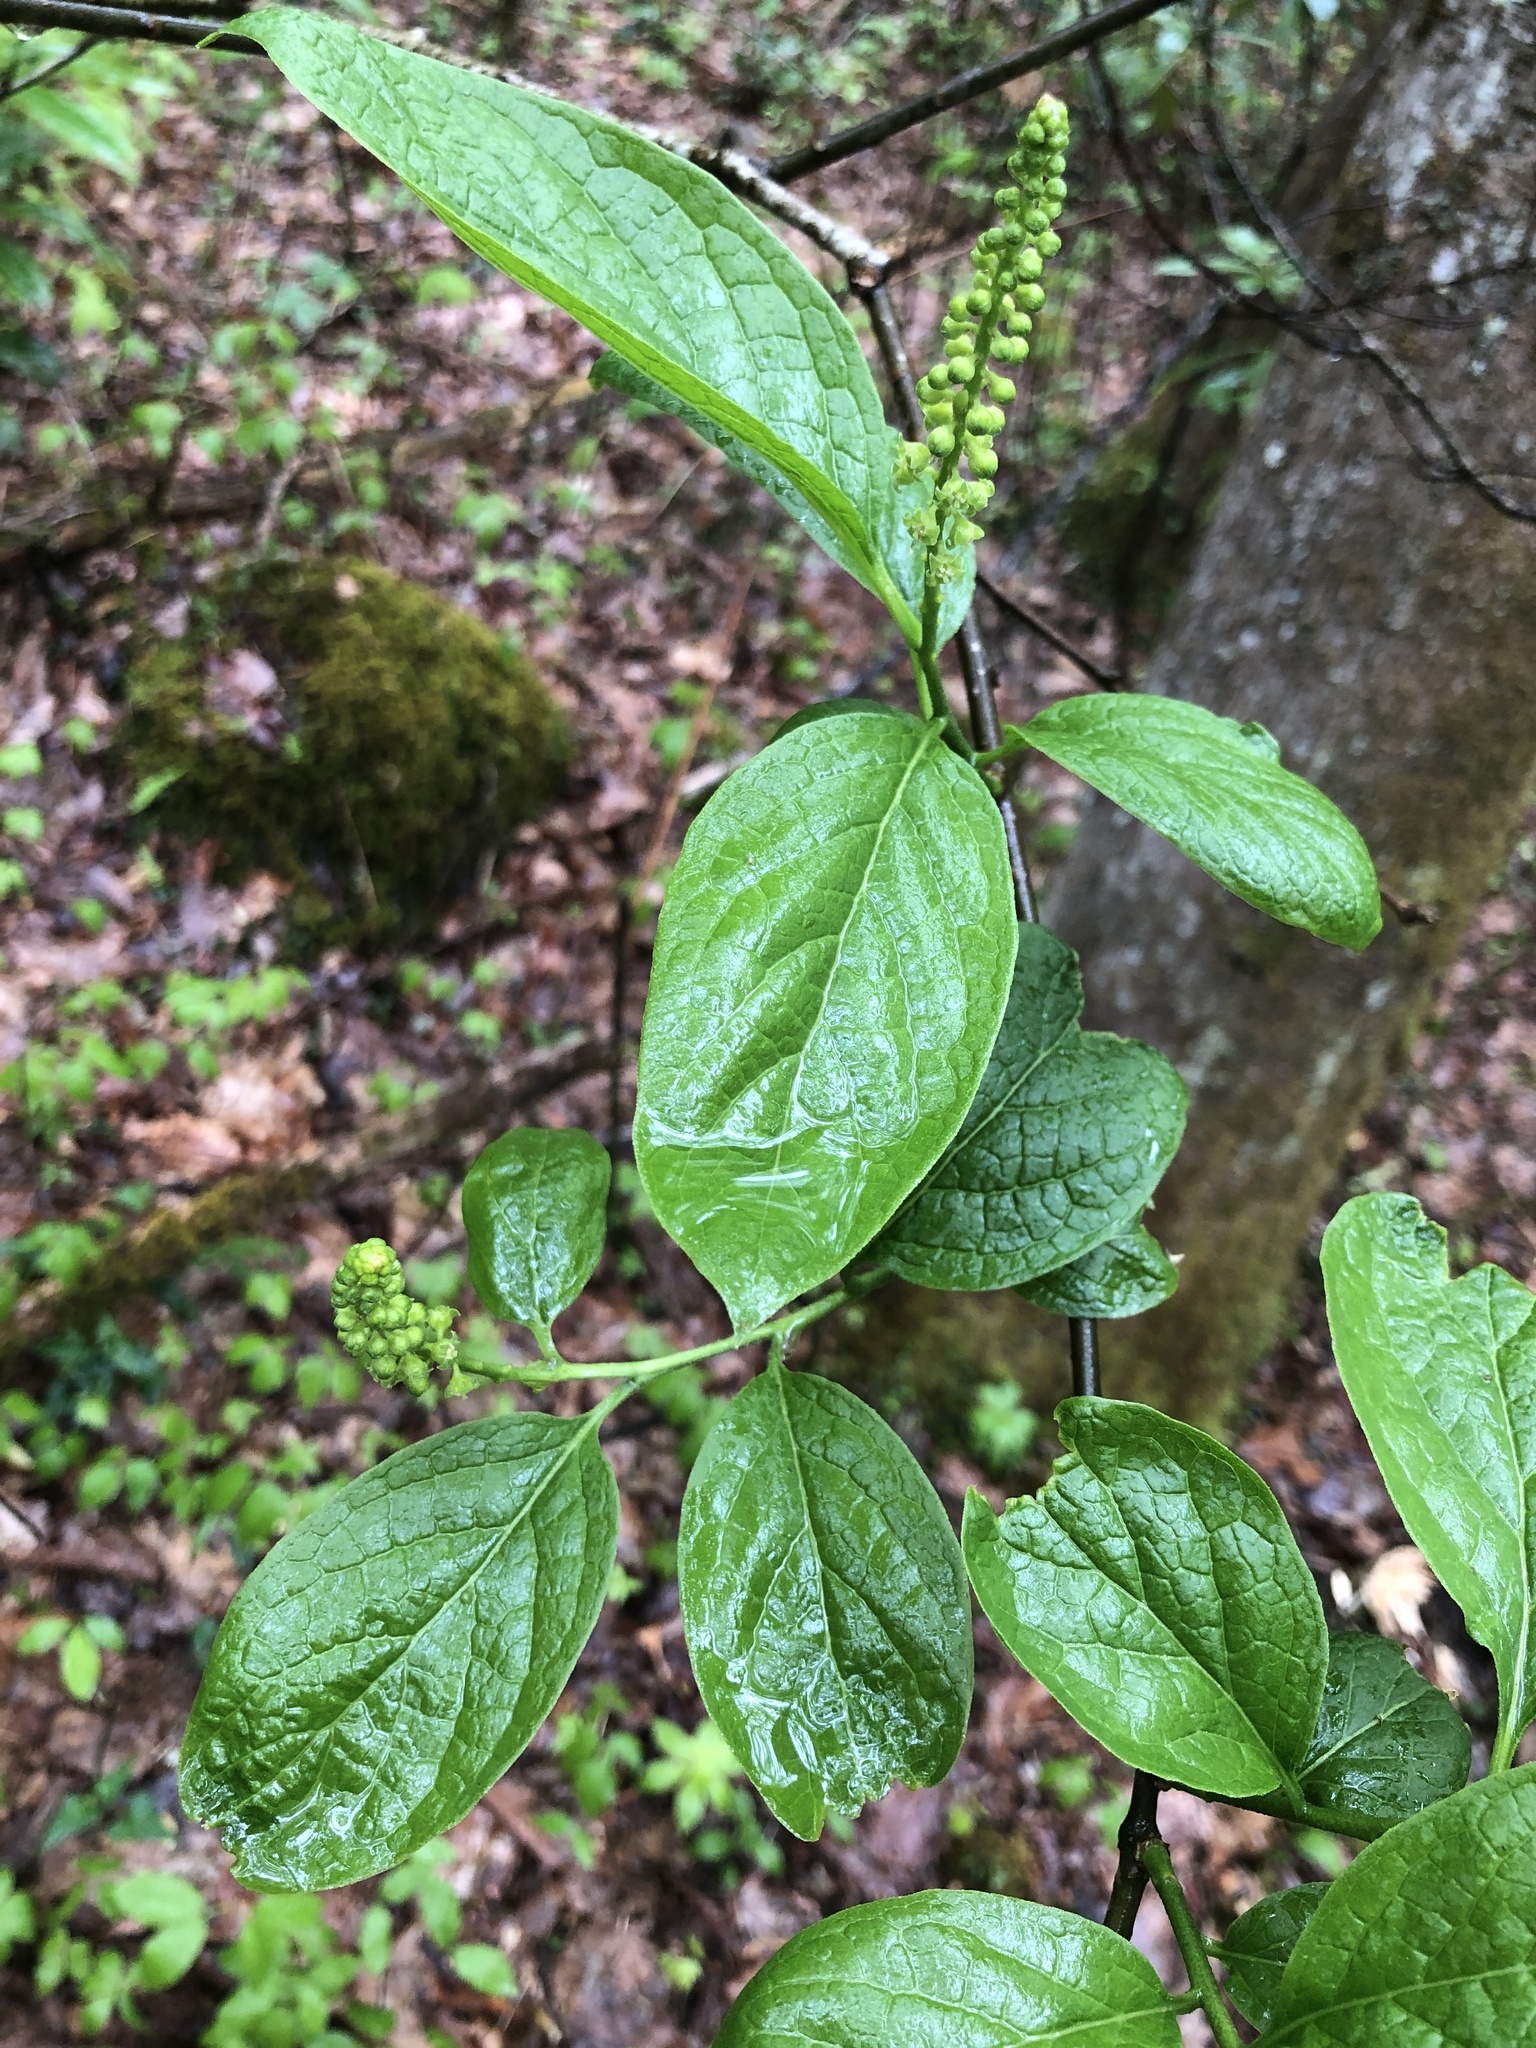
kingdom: Plantae
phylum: Tracheophyta
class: Magnoliopsida
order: Santalales
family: Cervantesiaceae
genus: Pyrularia
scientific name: Pyrularia pubera
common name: Oilnut
